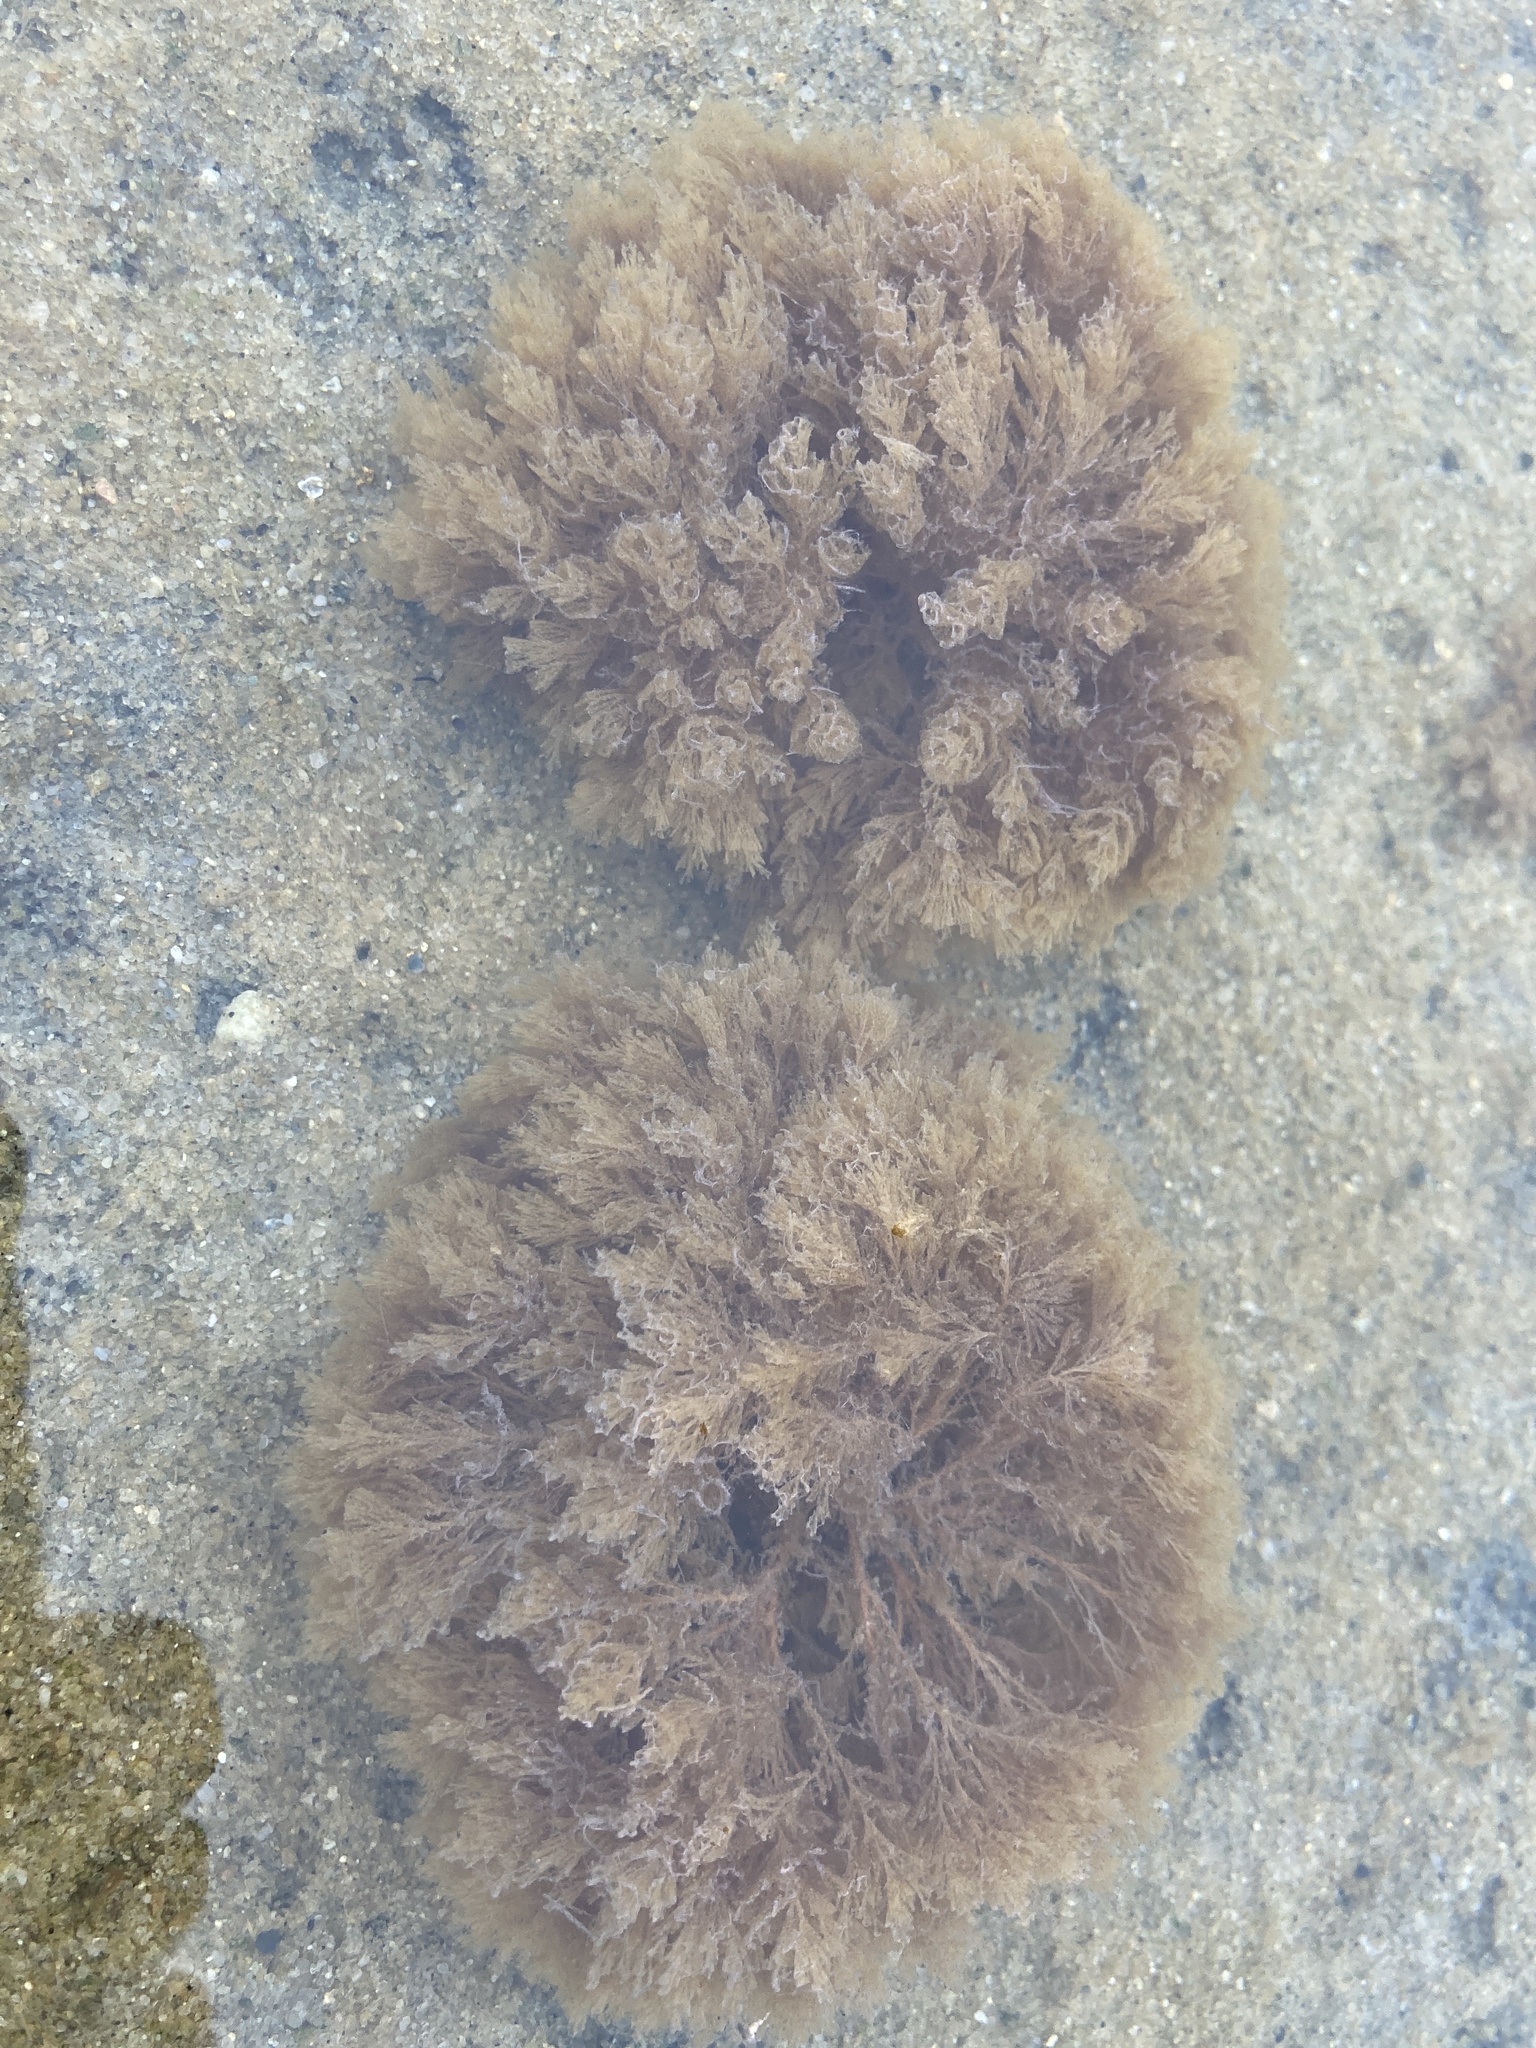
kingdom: Animalia
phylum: Bryozoa
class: Gymnolaemata
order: Cheilostomatida
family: Bugulidae
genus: Crisularia
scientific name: Crisularia turrita
